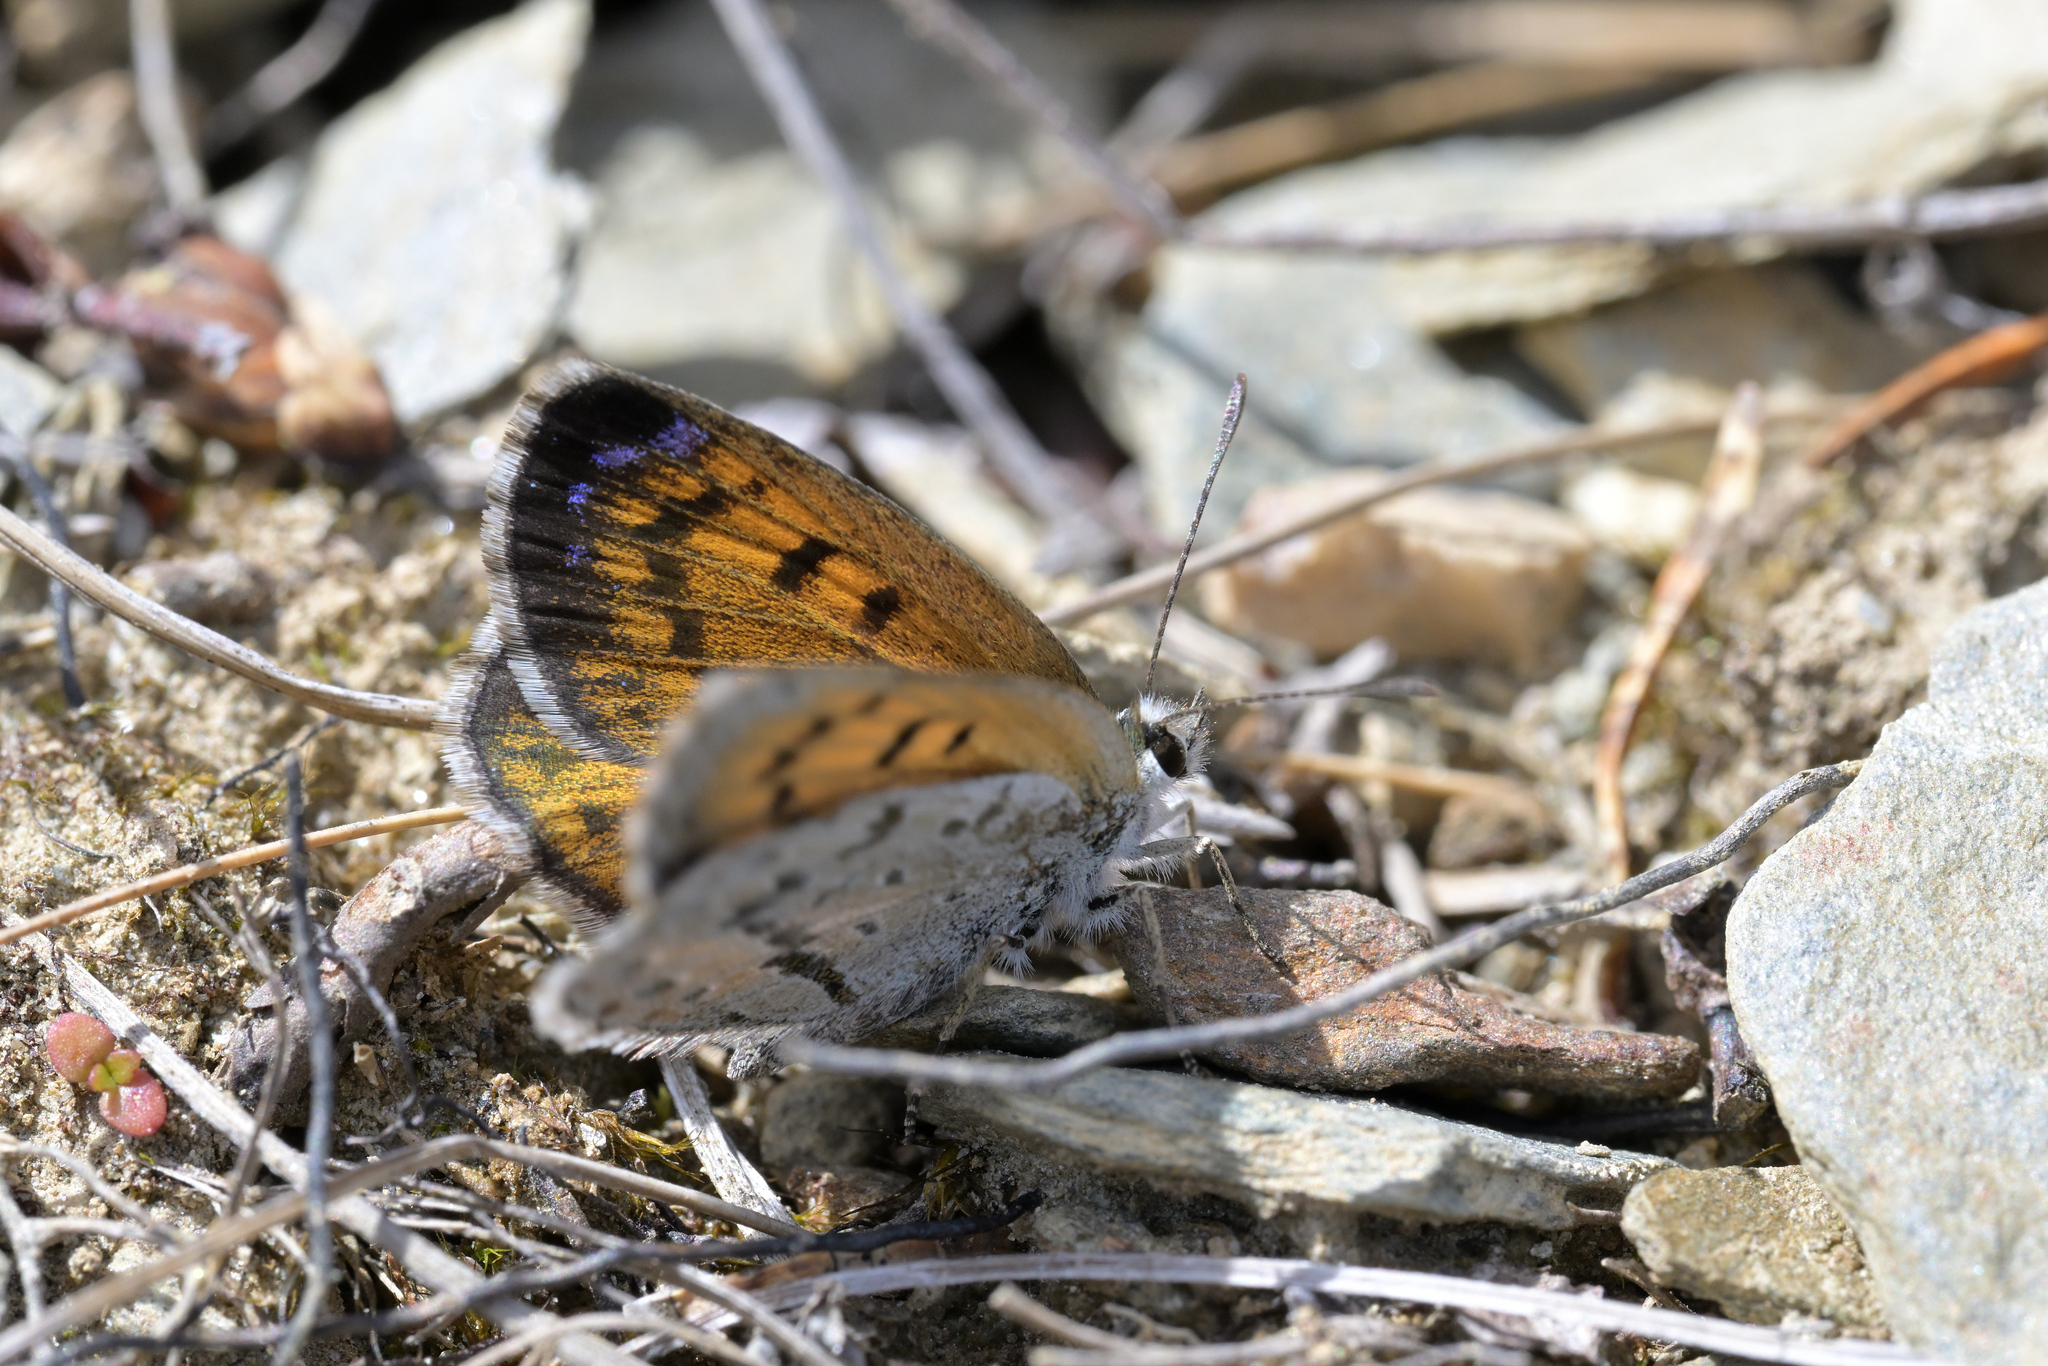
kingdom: Animalia
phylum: Arthropoda
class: Insecta
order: Lepidoptera
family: Lycaenidae
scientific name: Lycaenidae
